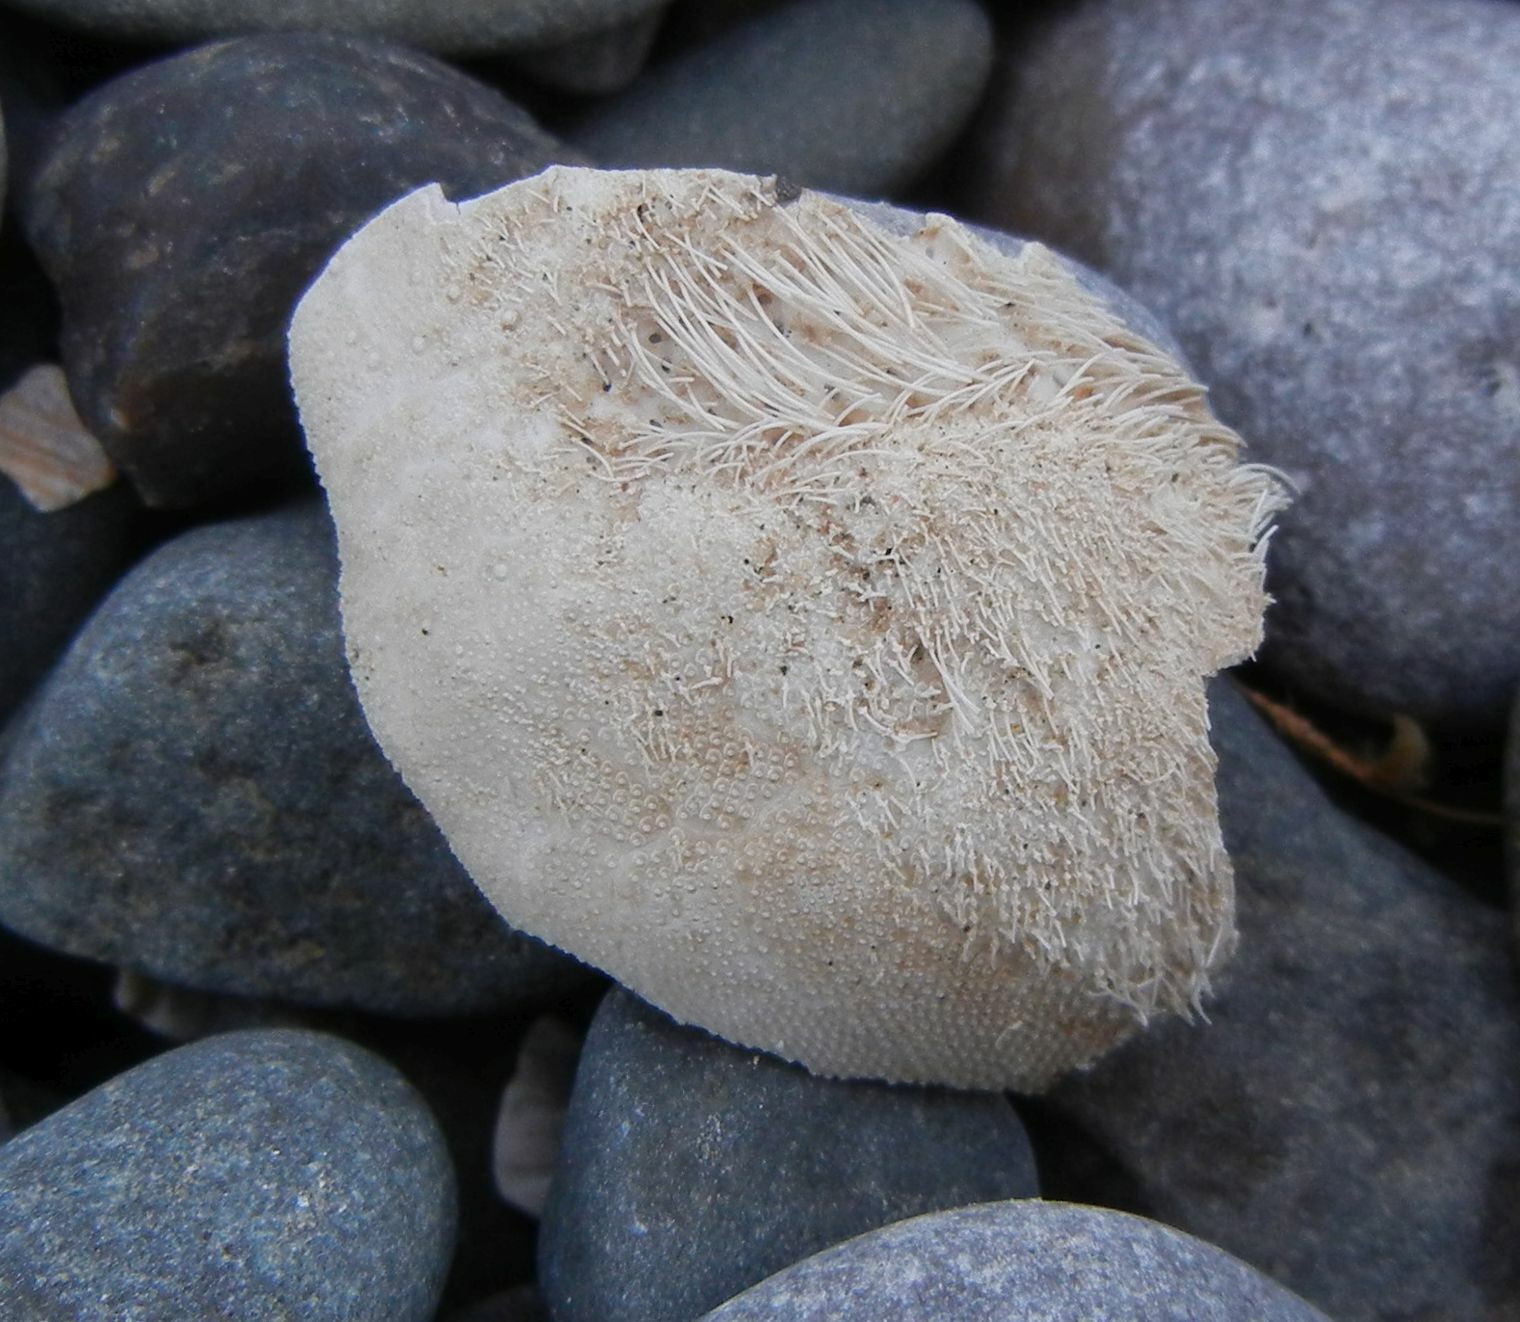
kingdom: Animalia
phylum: Echinodermata
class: Echinoidea
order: Spatangoida
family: Loveniidae
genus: Echinocardium
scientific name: Echinocardium cordatum
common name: Heart-urchin
